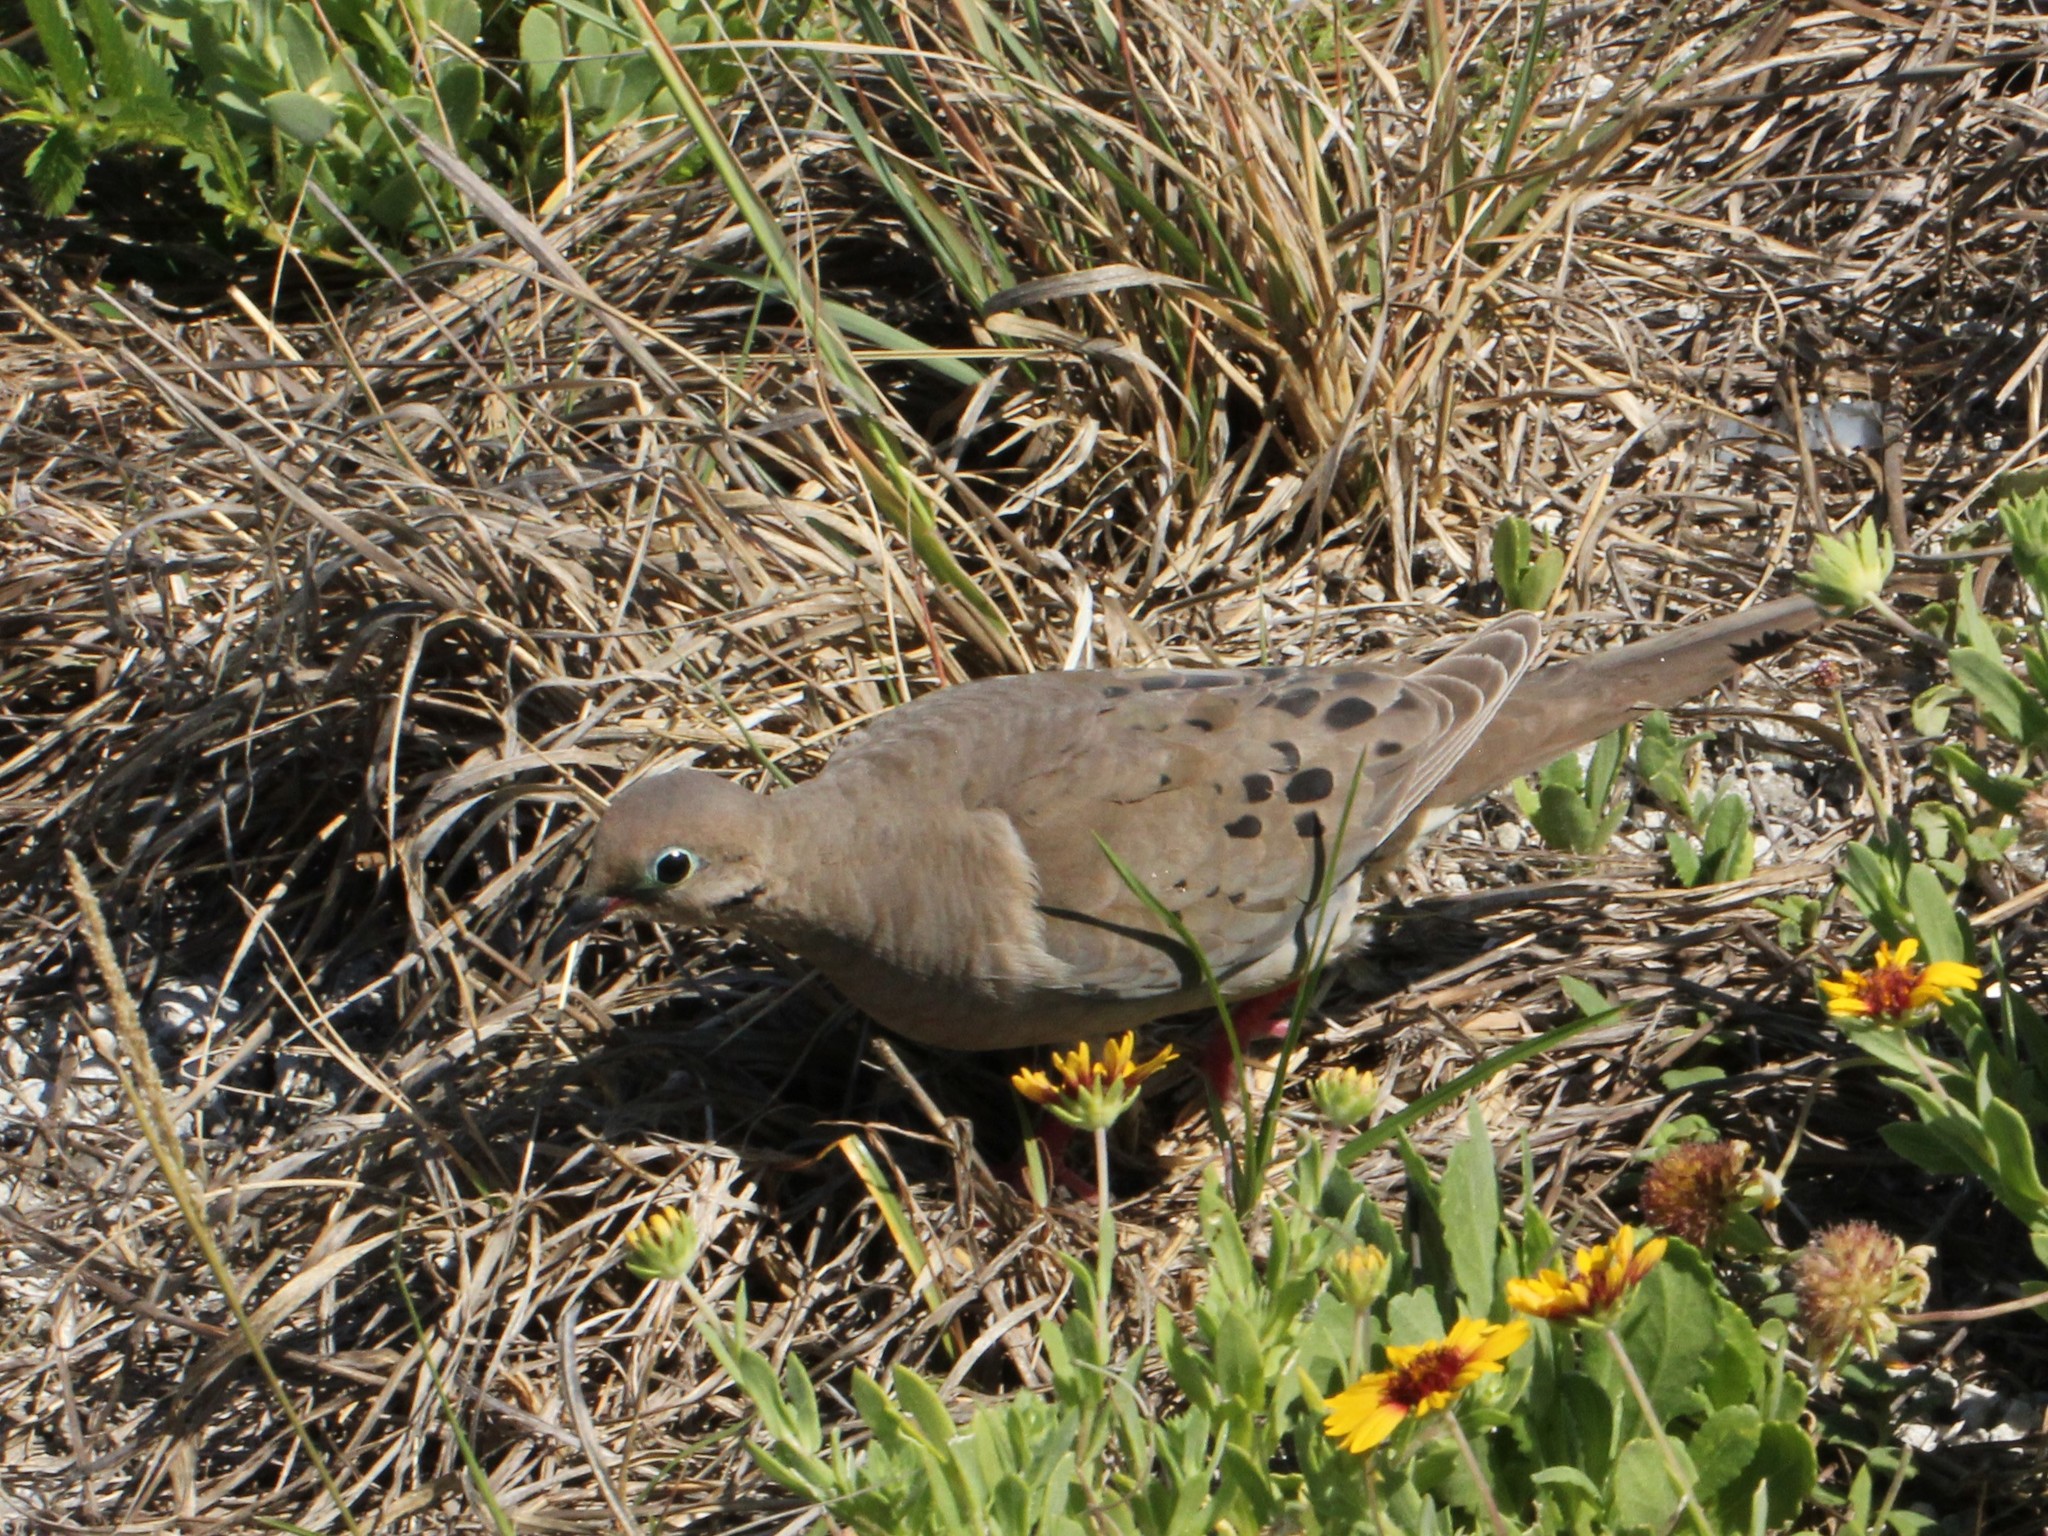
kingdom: Animalia
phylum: Chordata
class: Aves
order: Columbiformes
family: Columbidae
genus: Zenaida
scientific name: Zenaida macroura
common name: Mourning dove
